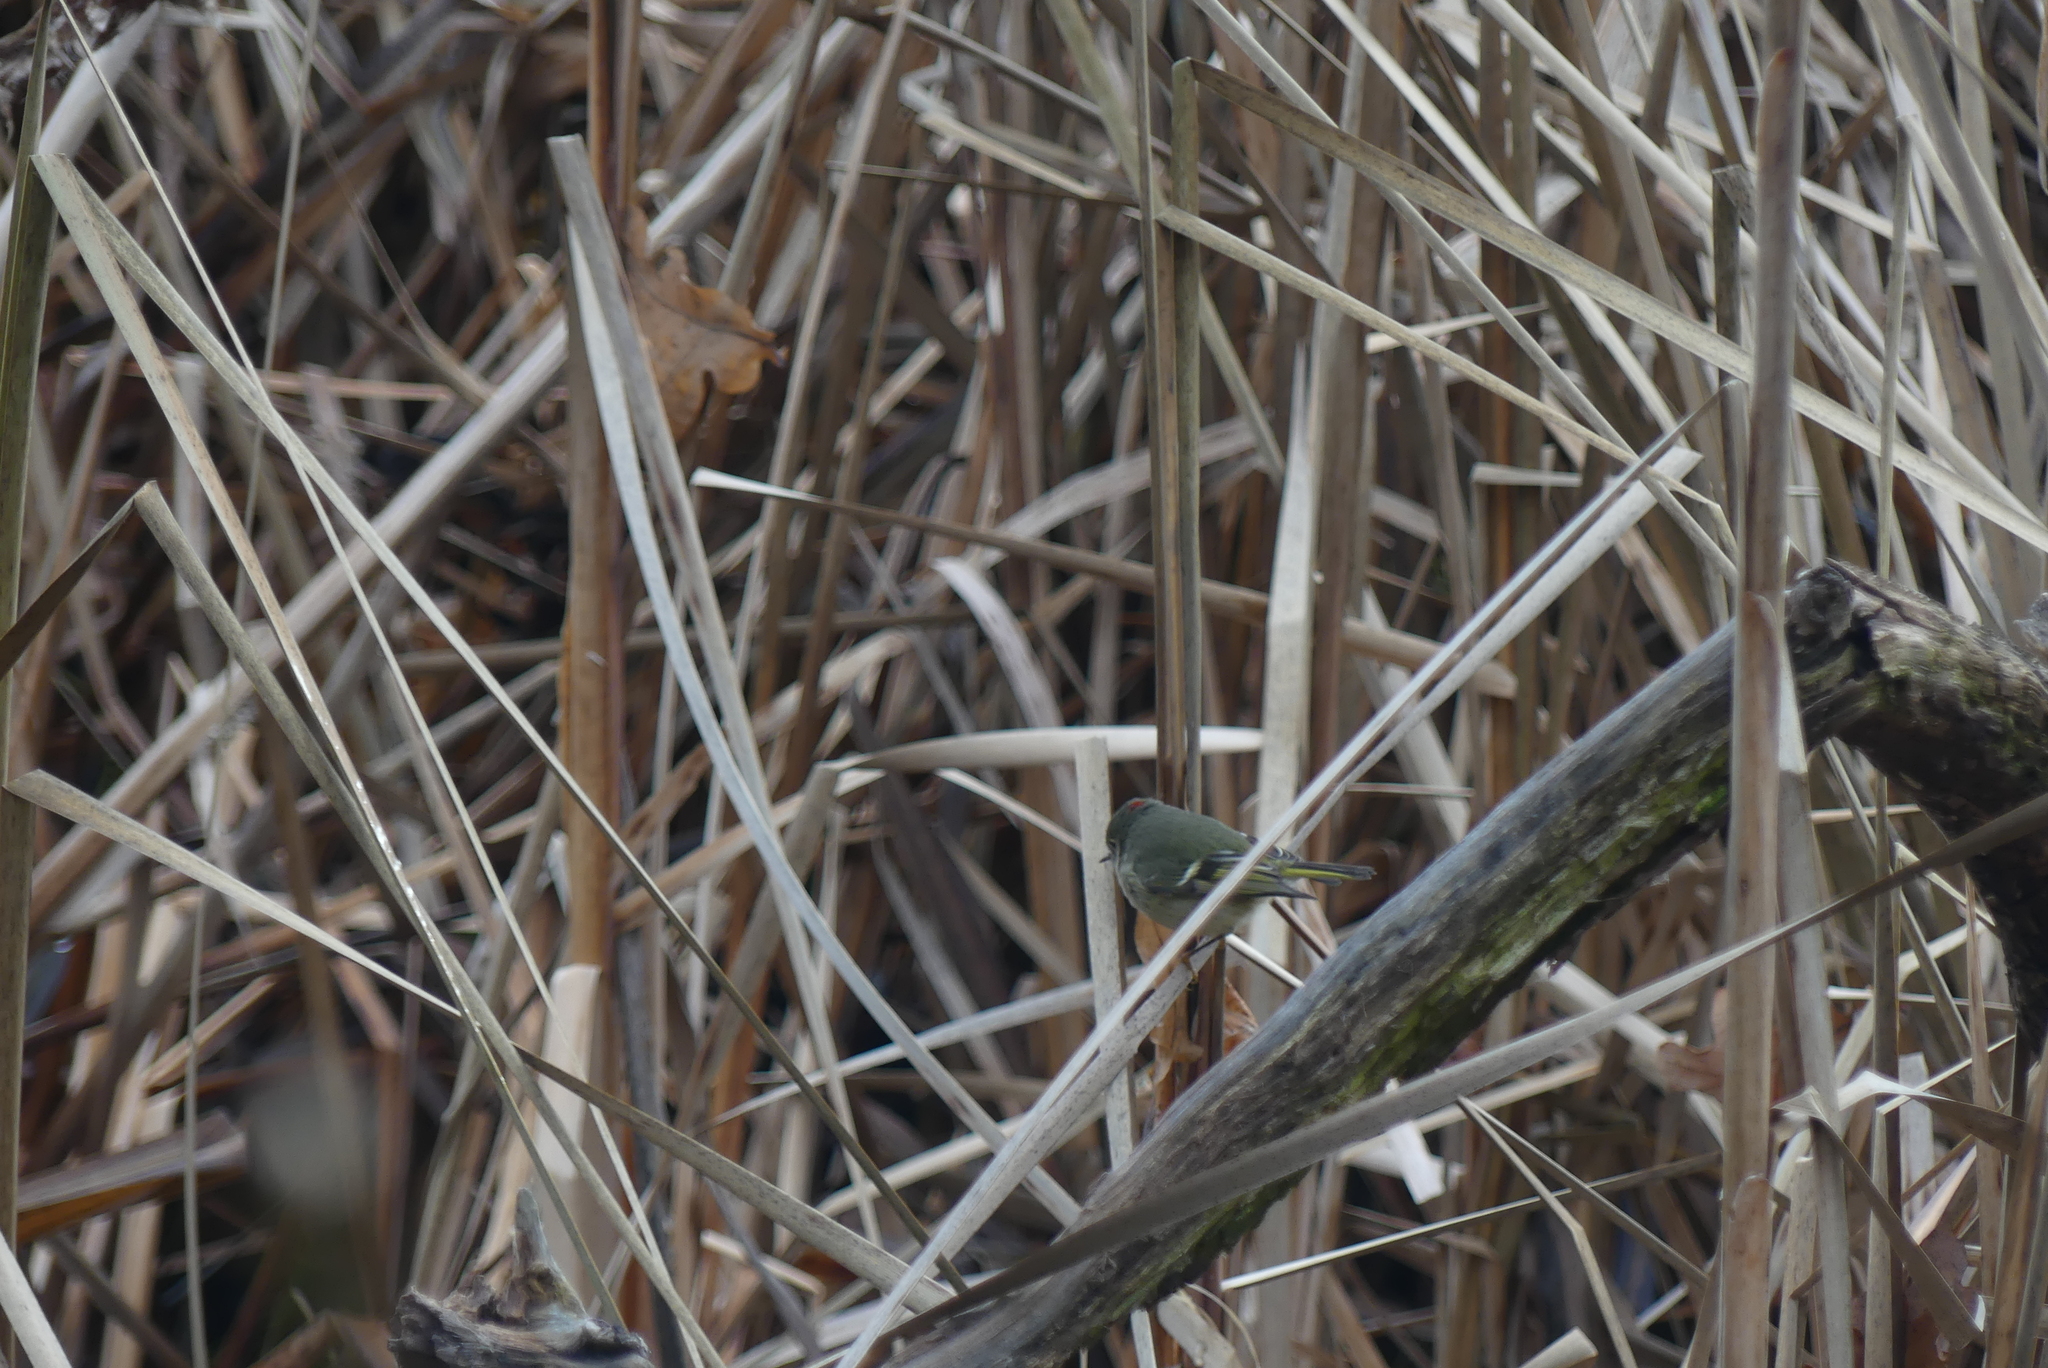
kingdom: Animalia
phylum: Chordata
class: Aves
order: Passeriformes
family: Regulidae
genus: Regulus
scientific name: Regulus calendula
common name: Ruby-crowned kinglet
